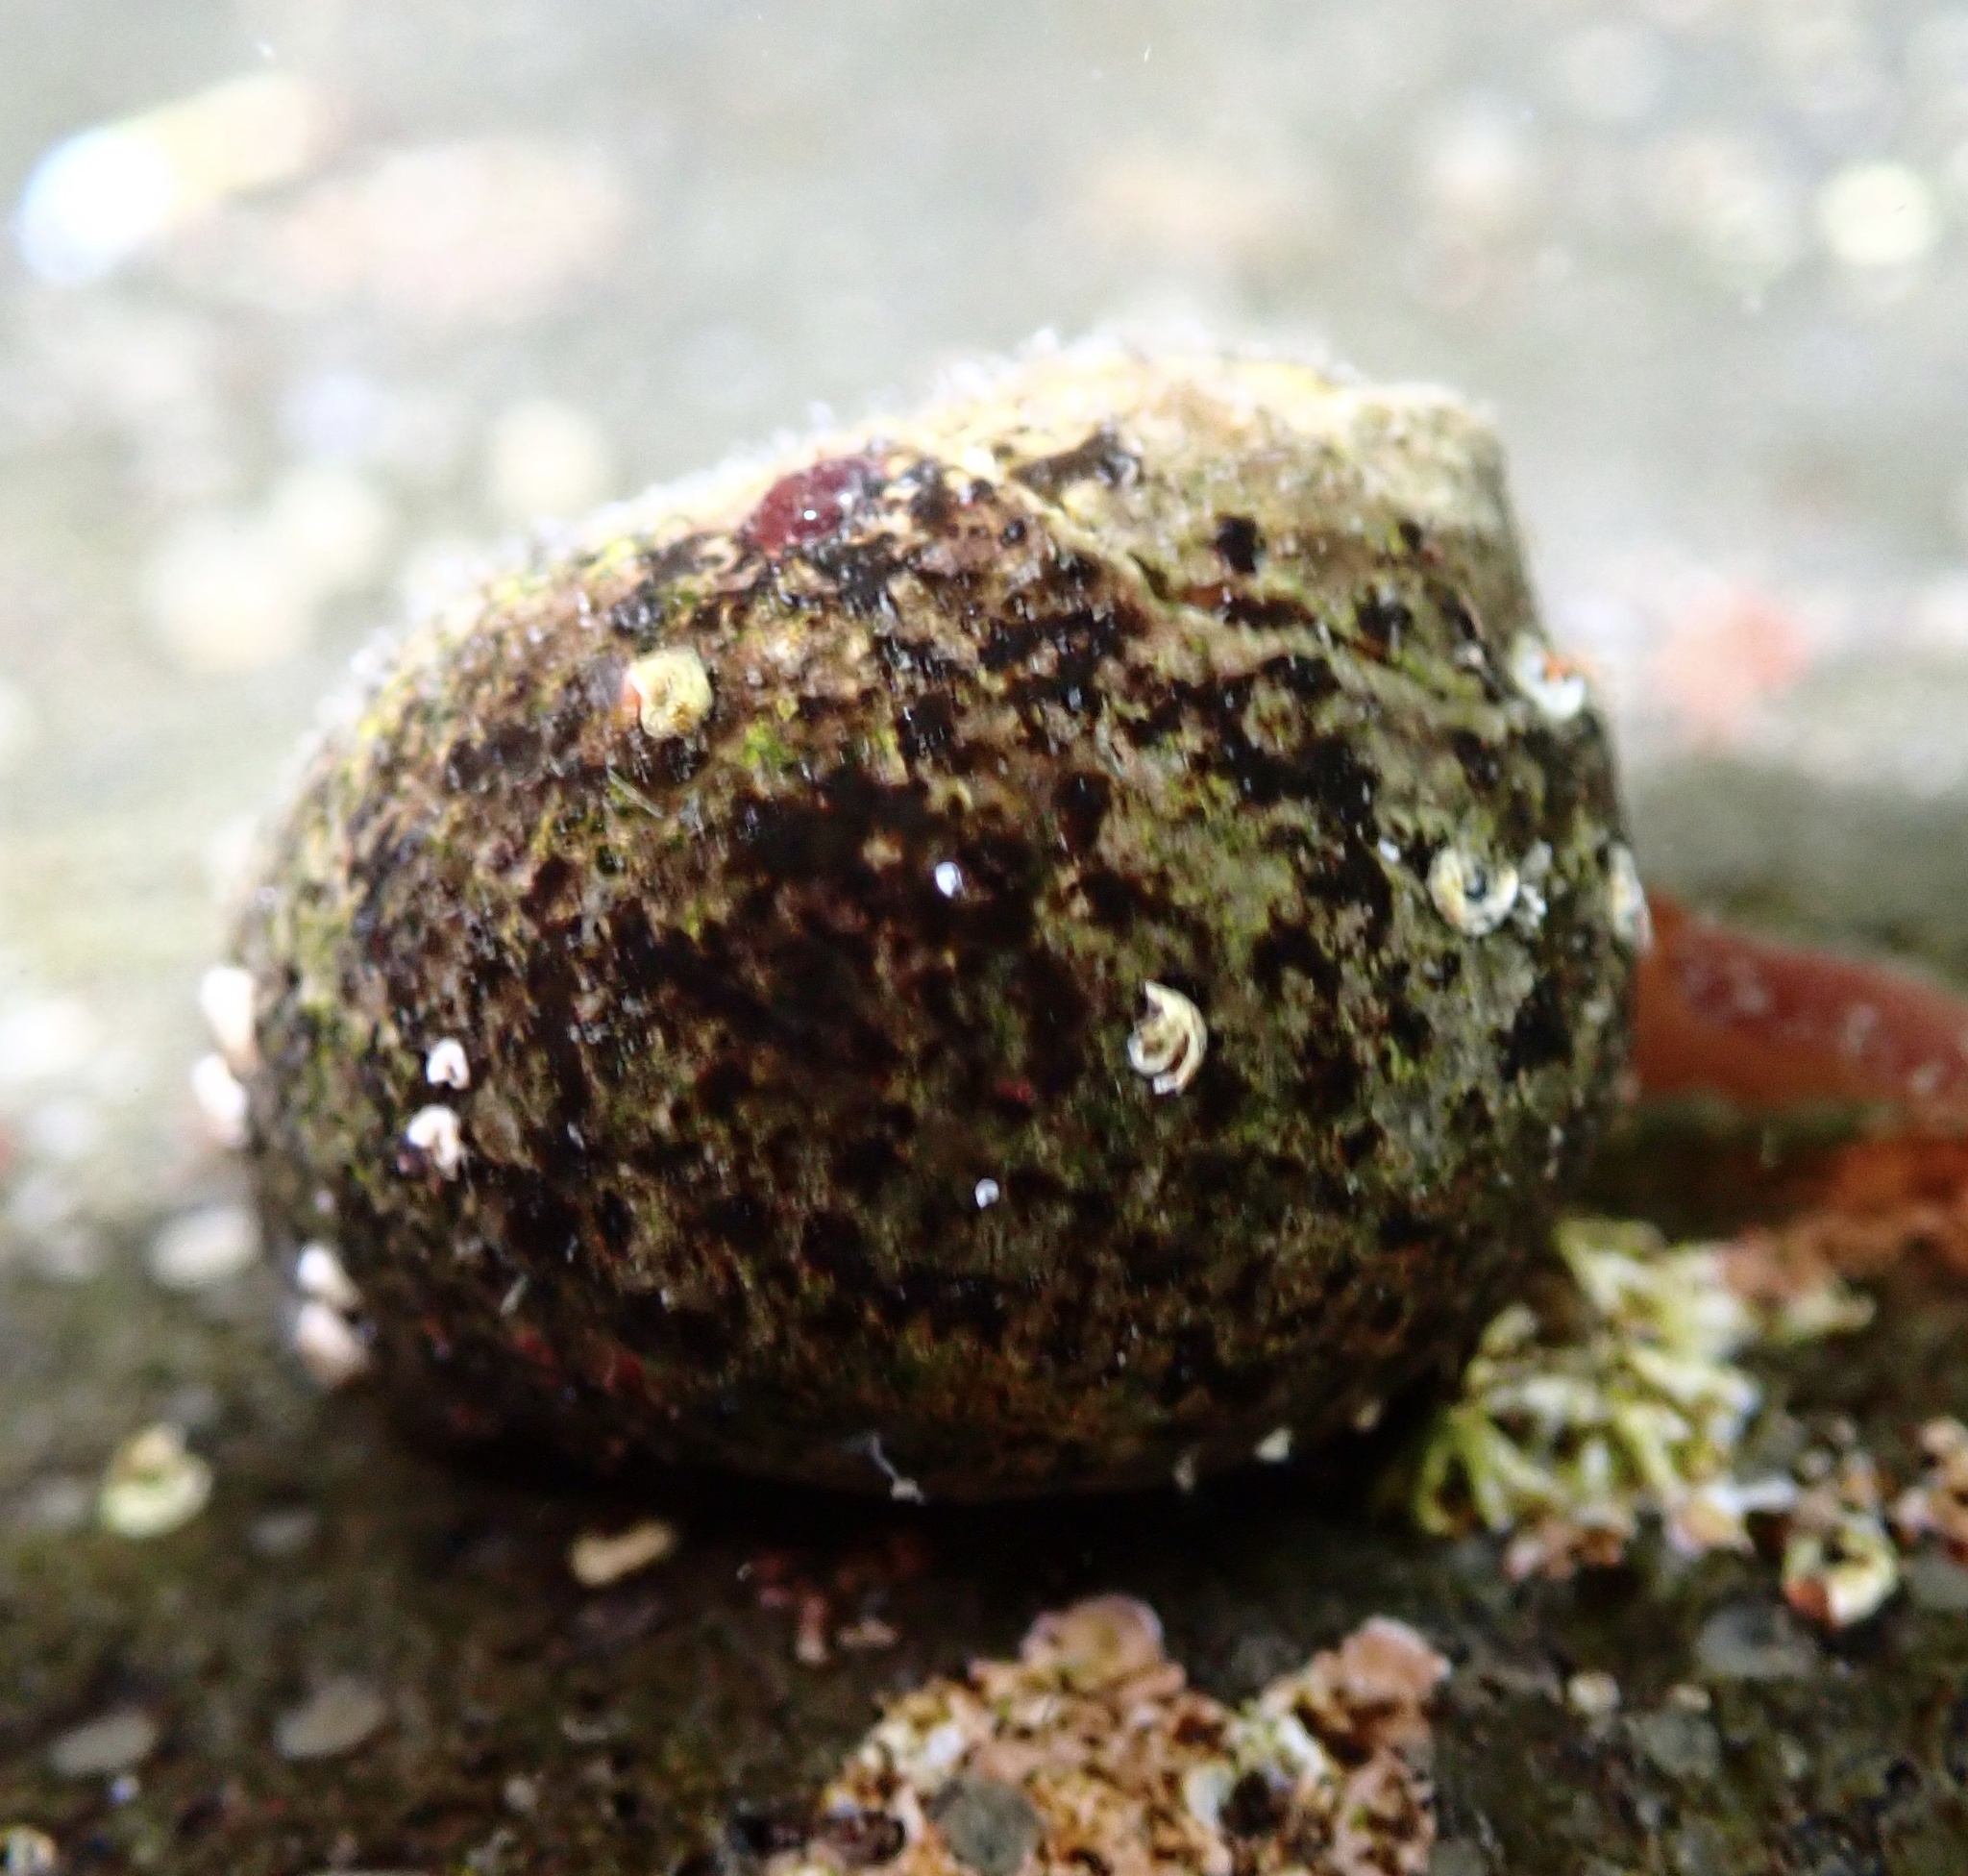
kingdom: Animalia
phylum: Mollusca
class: Gastropoda
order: Littorinimorpha
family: Littorinidae
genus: Littorina
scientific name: Littorina littorea
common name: Common periwinkle
